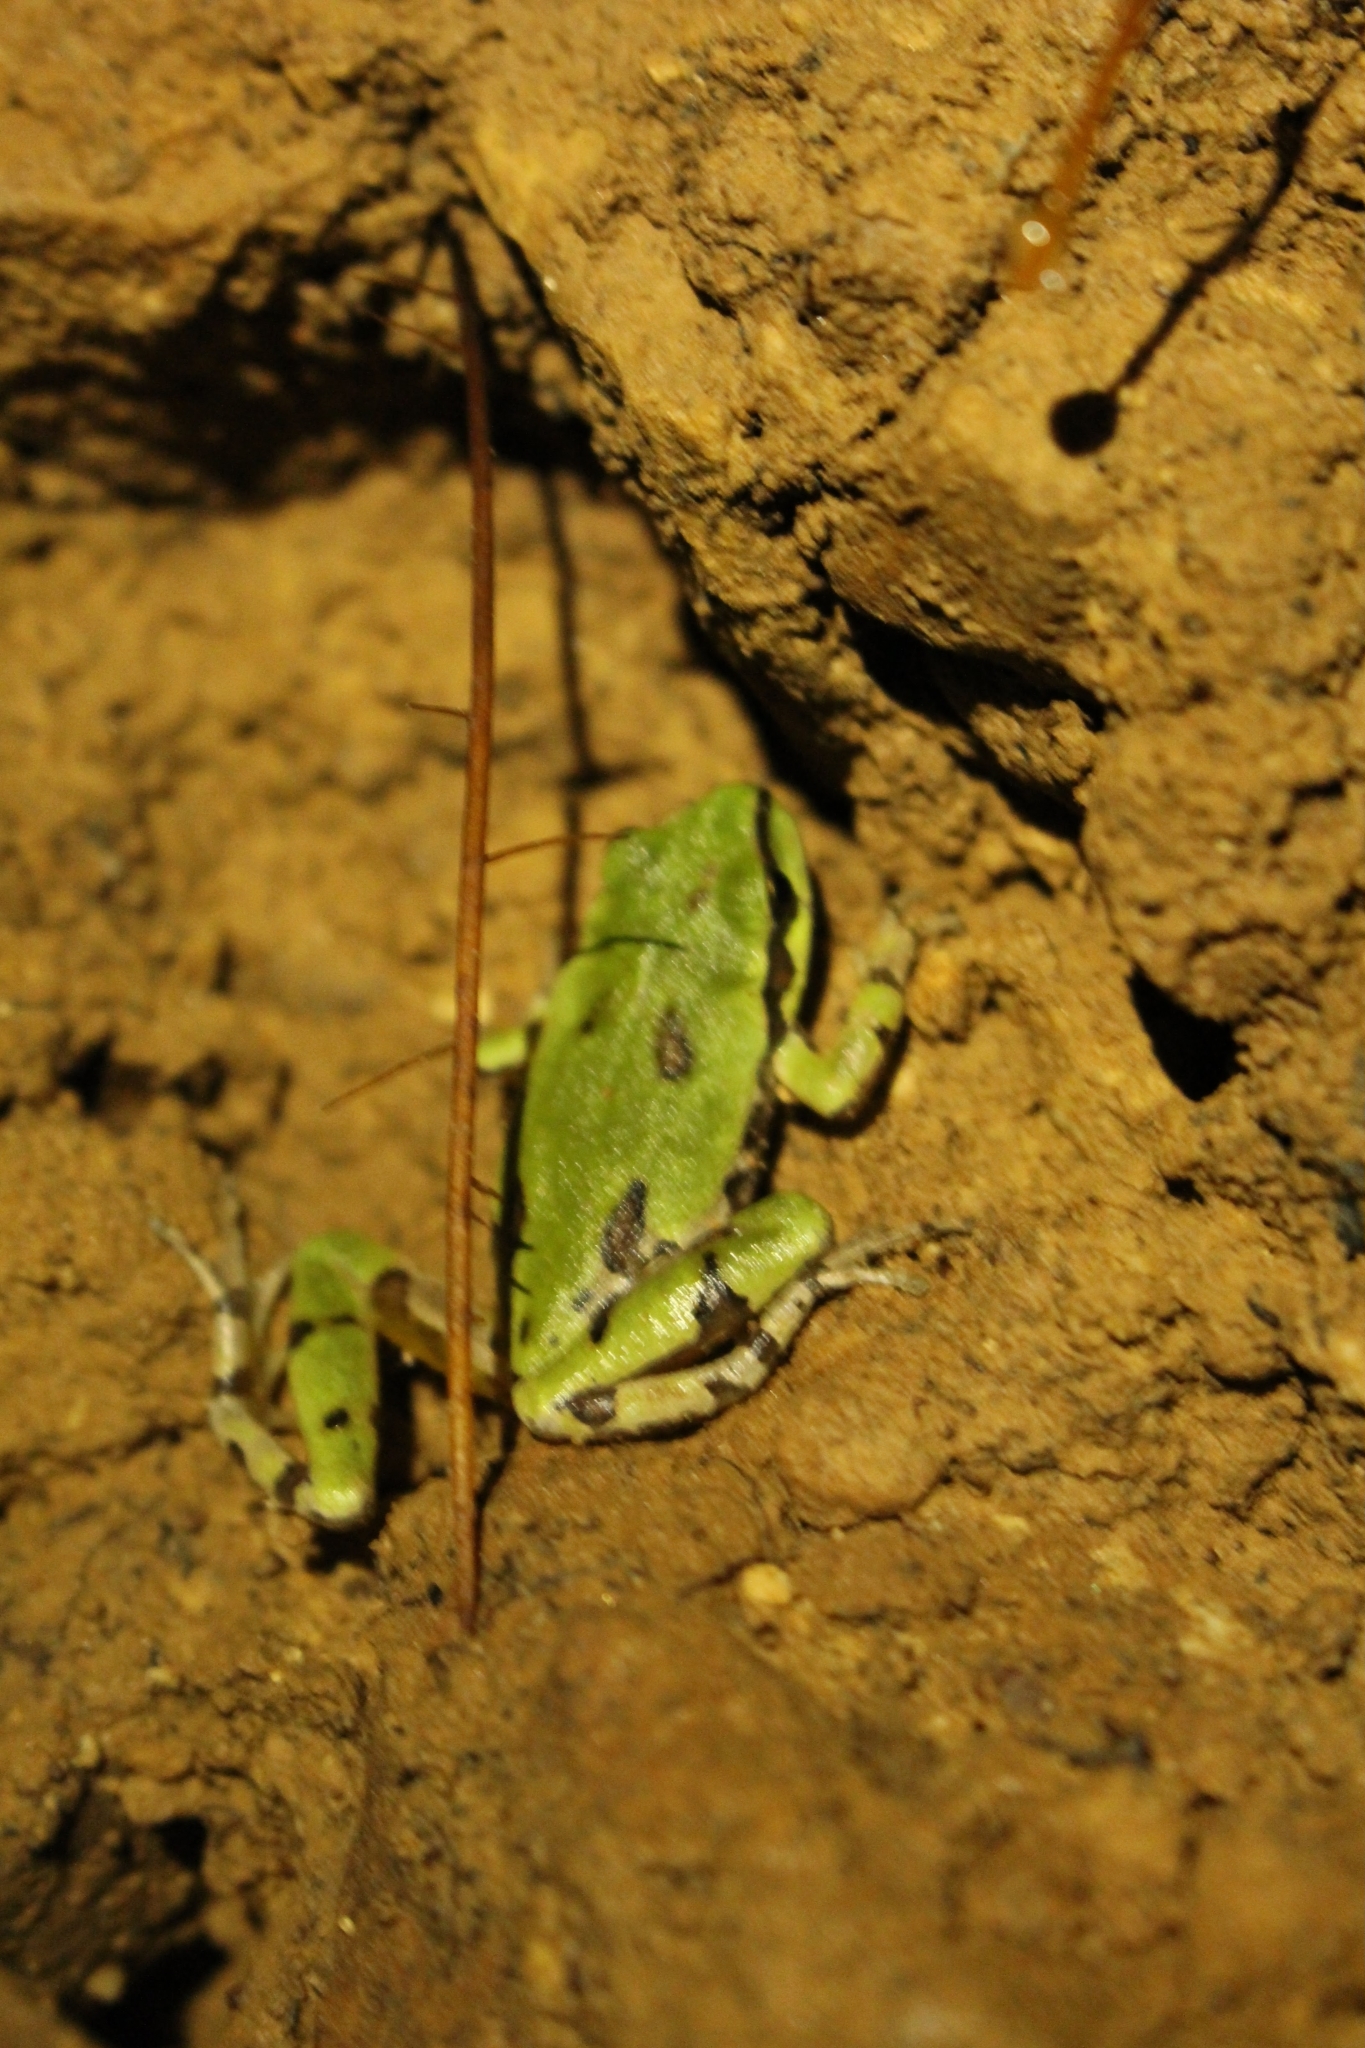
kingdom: Animalia
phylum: Chordata
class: Amphibia
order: Anura
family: Hylidae
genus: Dryophytes
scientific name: Dryophytes wrightorum
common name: Arizona treefrog
